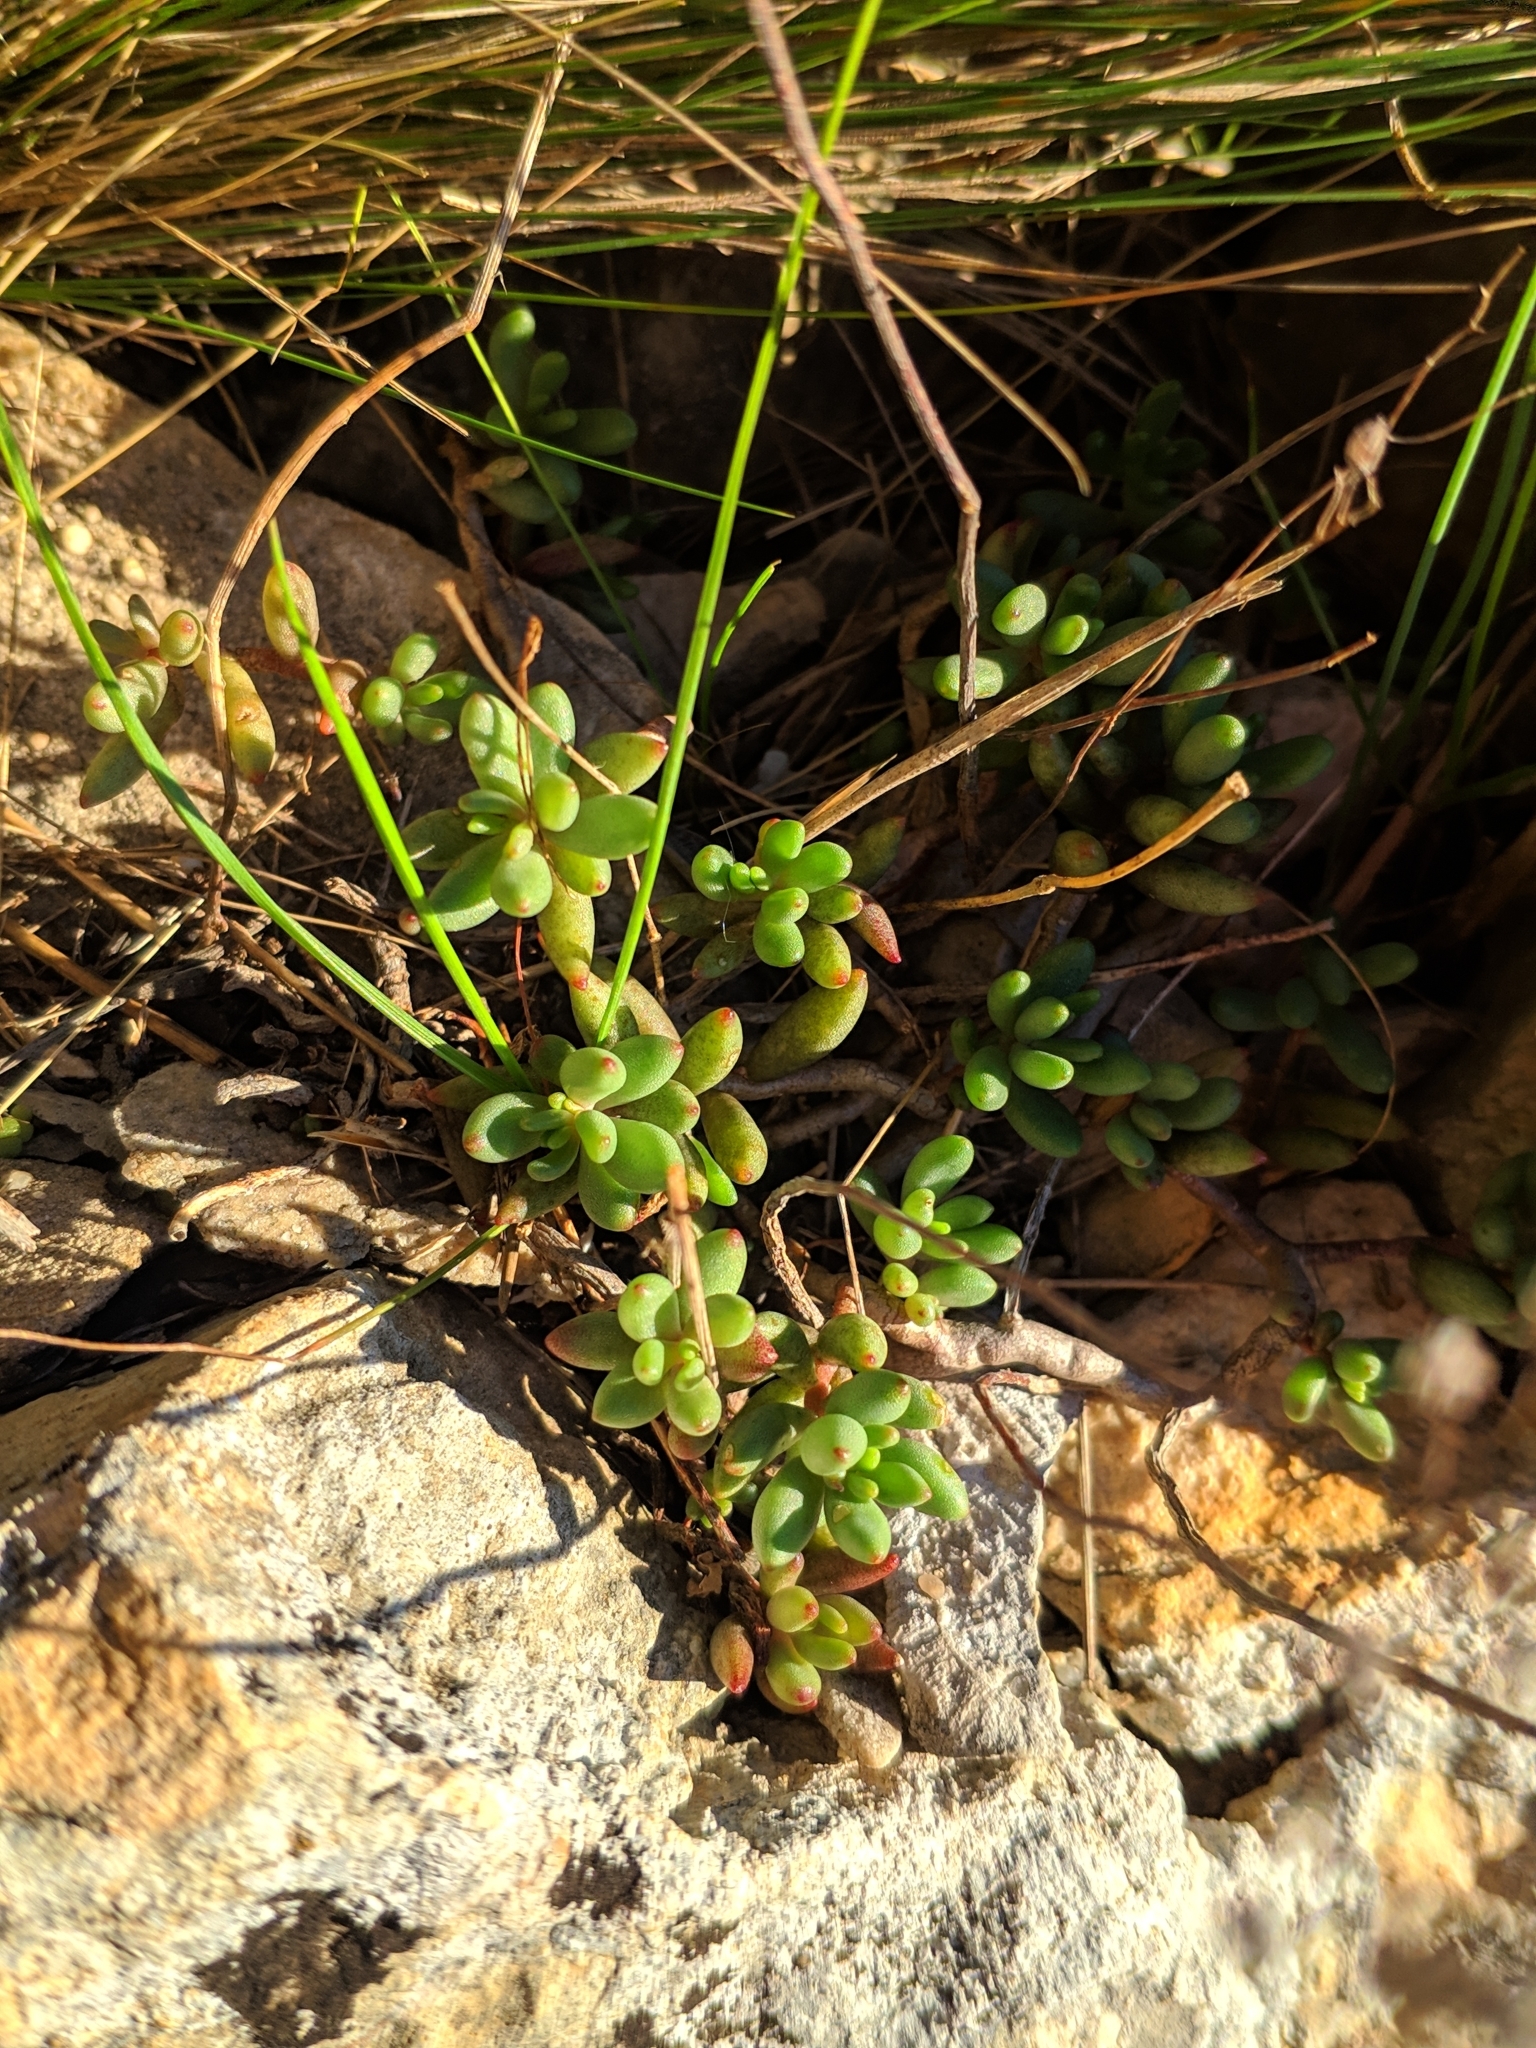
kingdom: Plantae
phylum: Tracheophyta
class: Magnoliopsida
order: Saxifragales
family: Crassulaceae
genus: Sedum
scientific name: Sedum album
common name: White stonecrop
